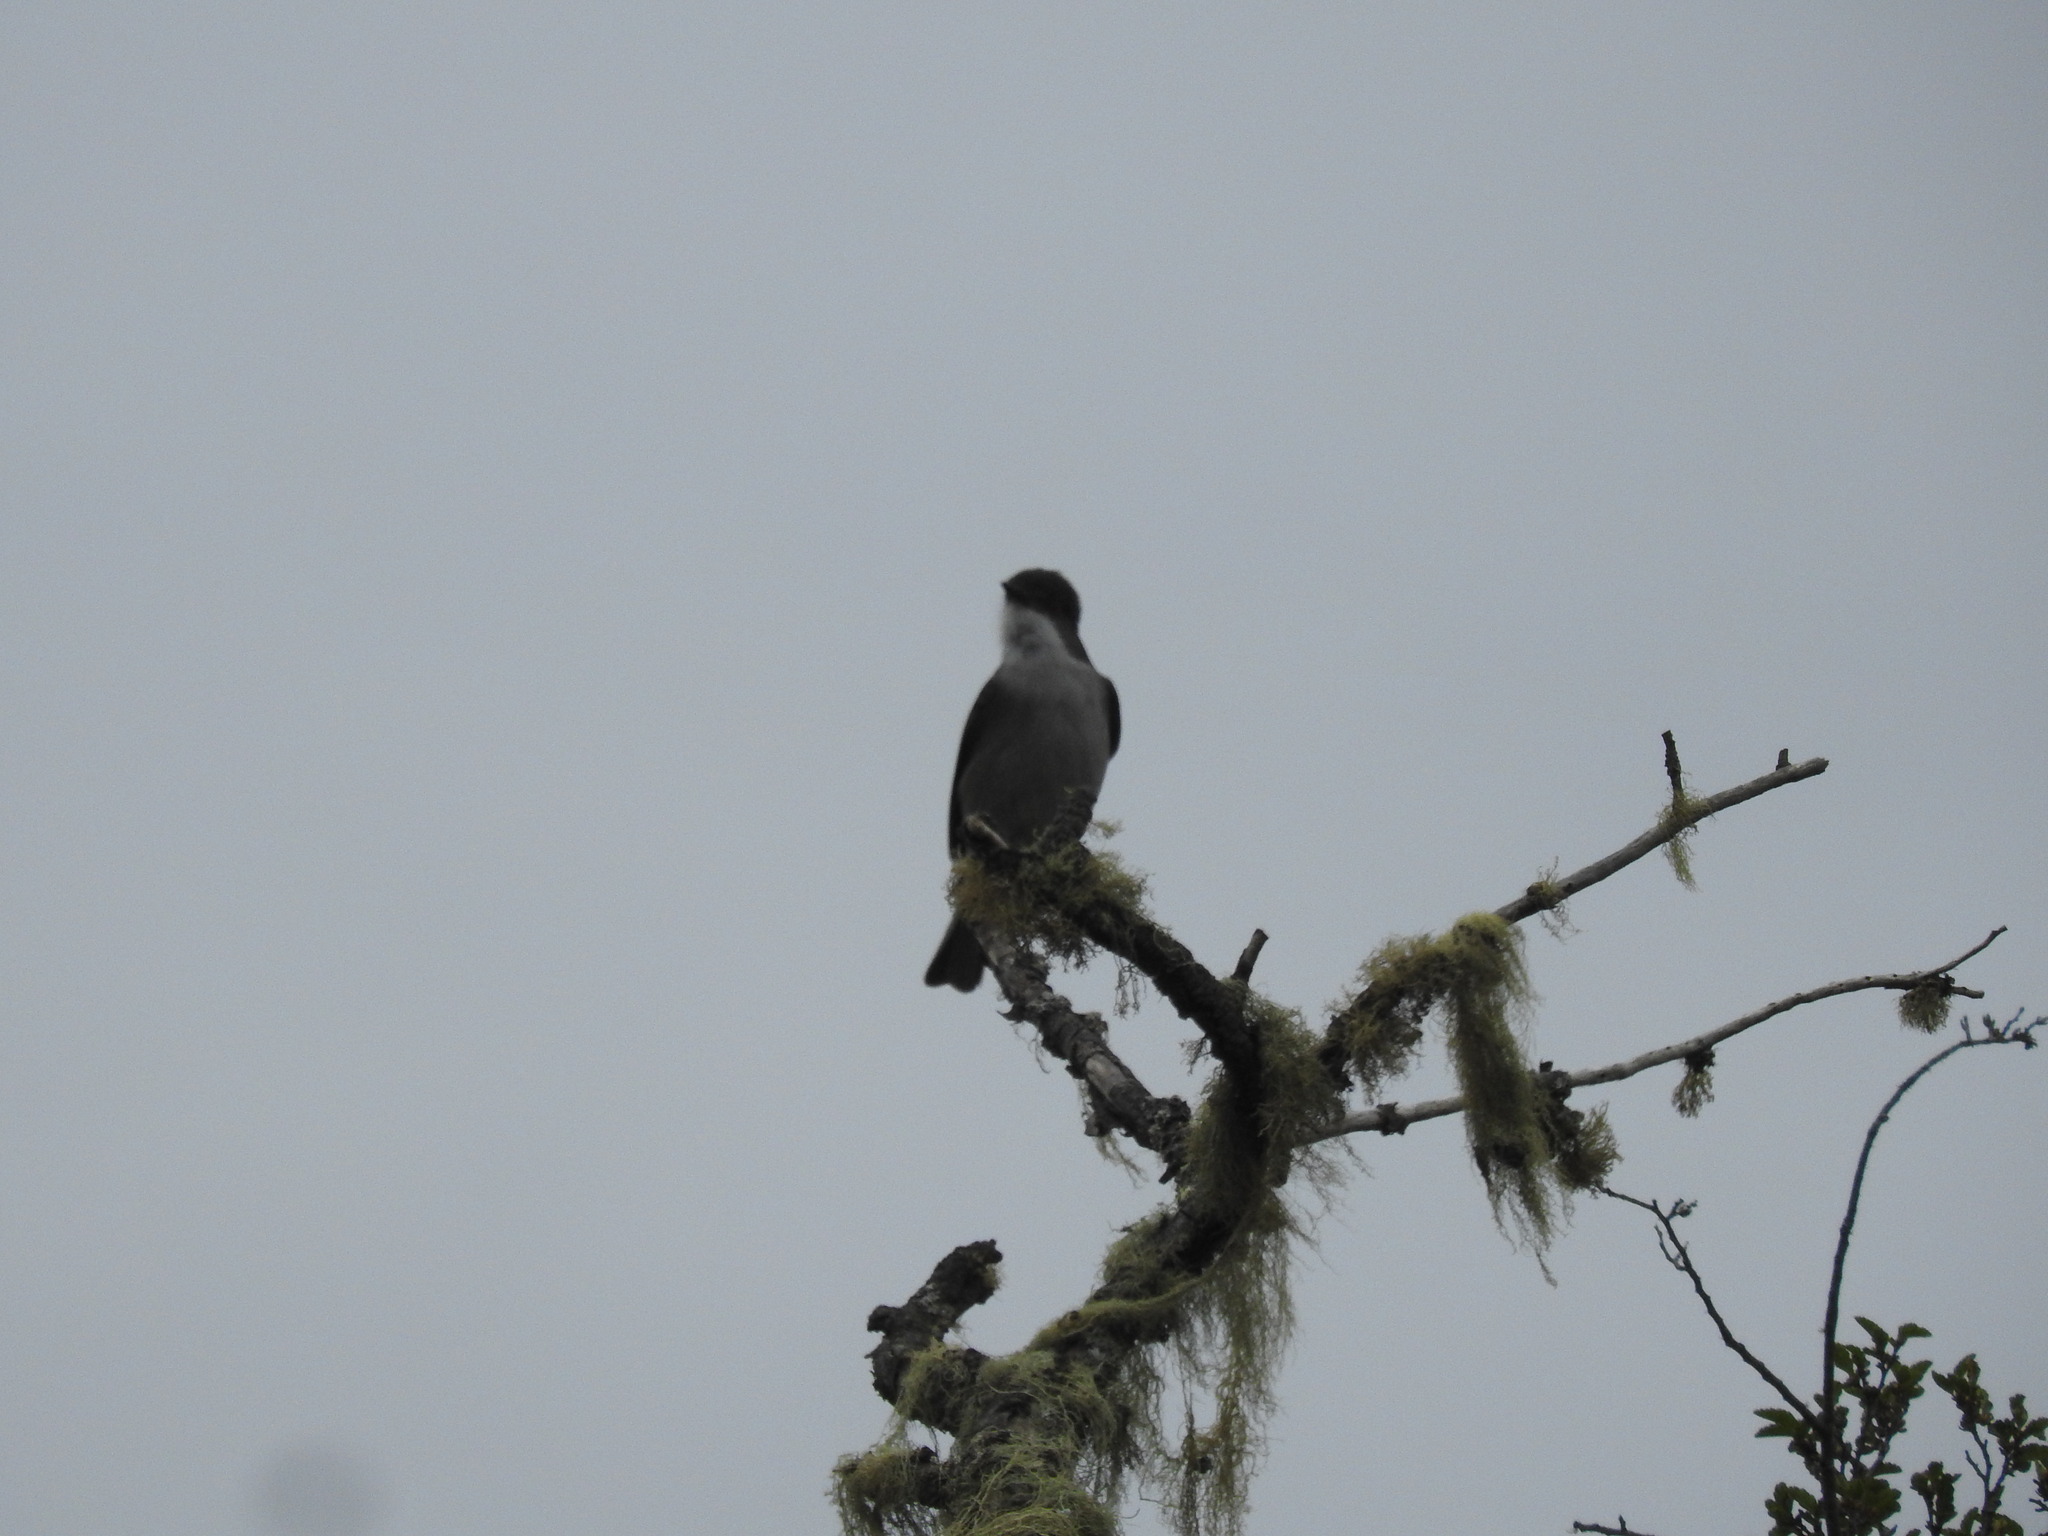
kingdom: Animalia
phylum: Chordata
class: Aves
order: Passeriformes
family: Tyrannidae
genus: Xolmis
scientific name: Xolmis pyrope
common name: Fire-eyed diucon
